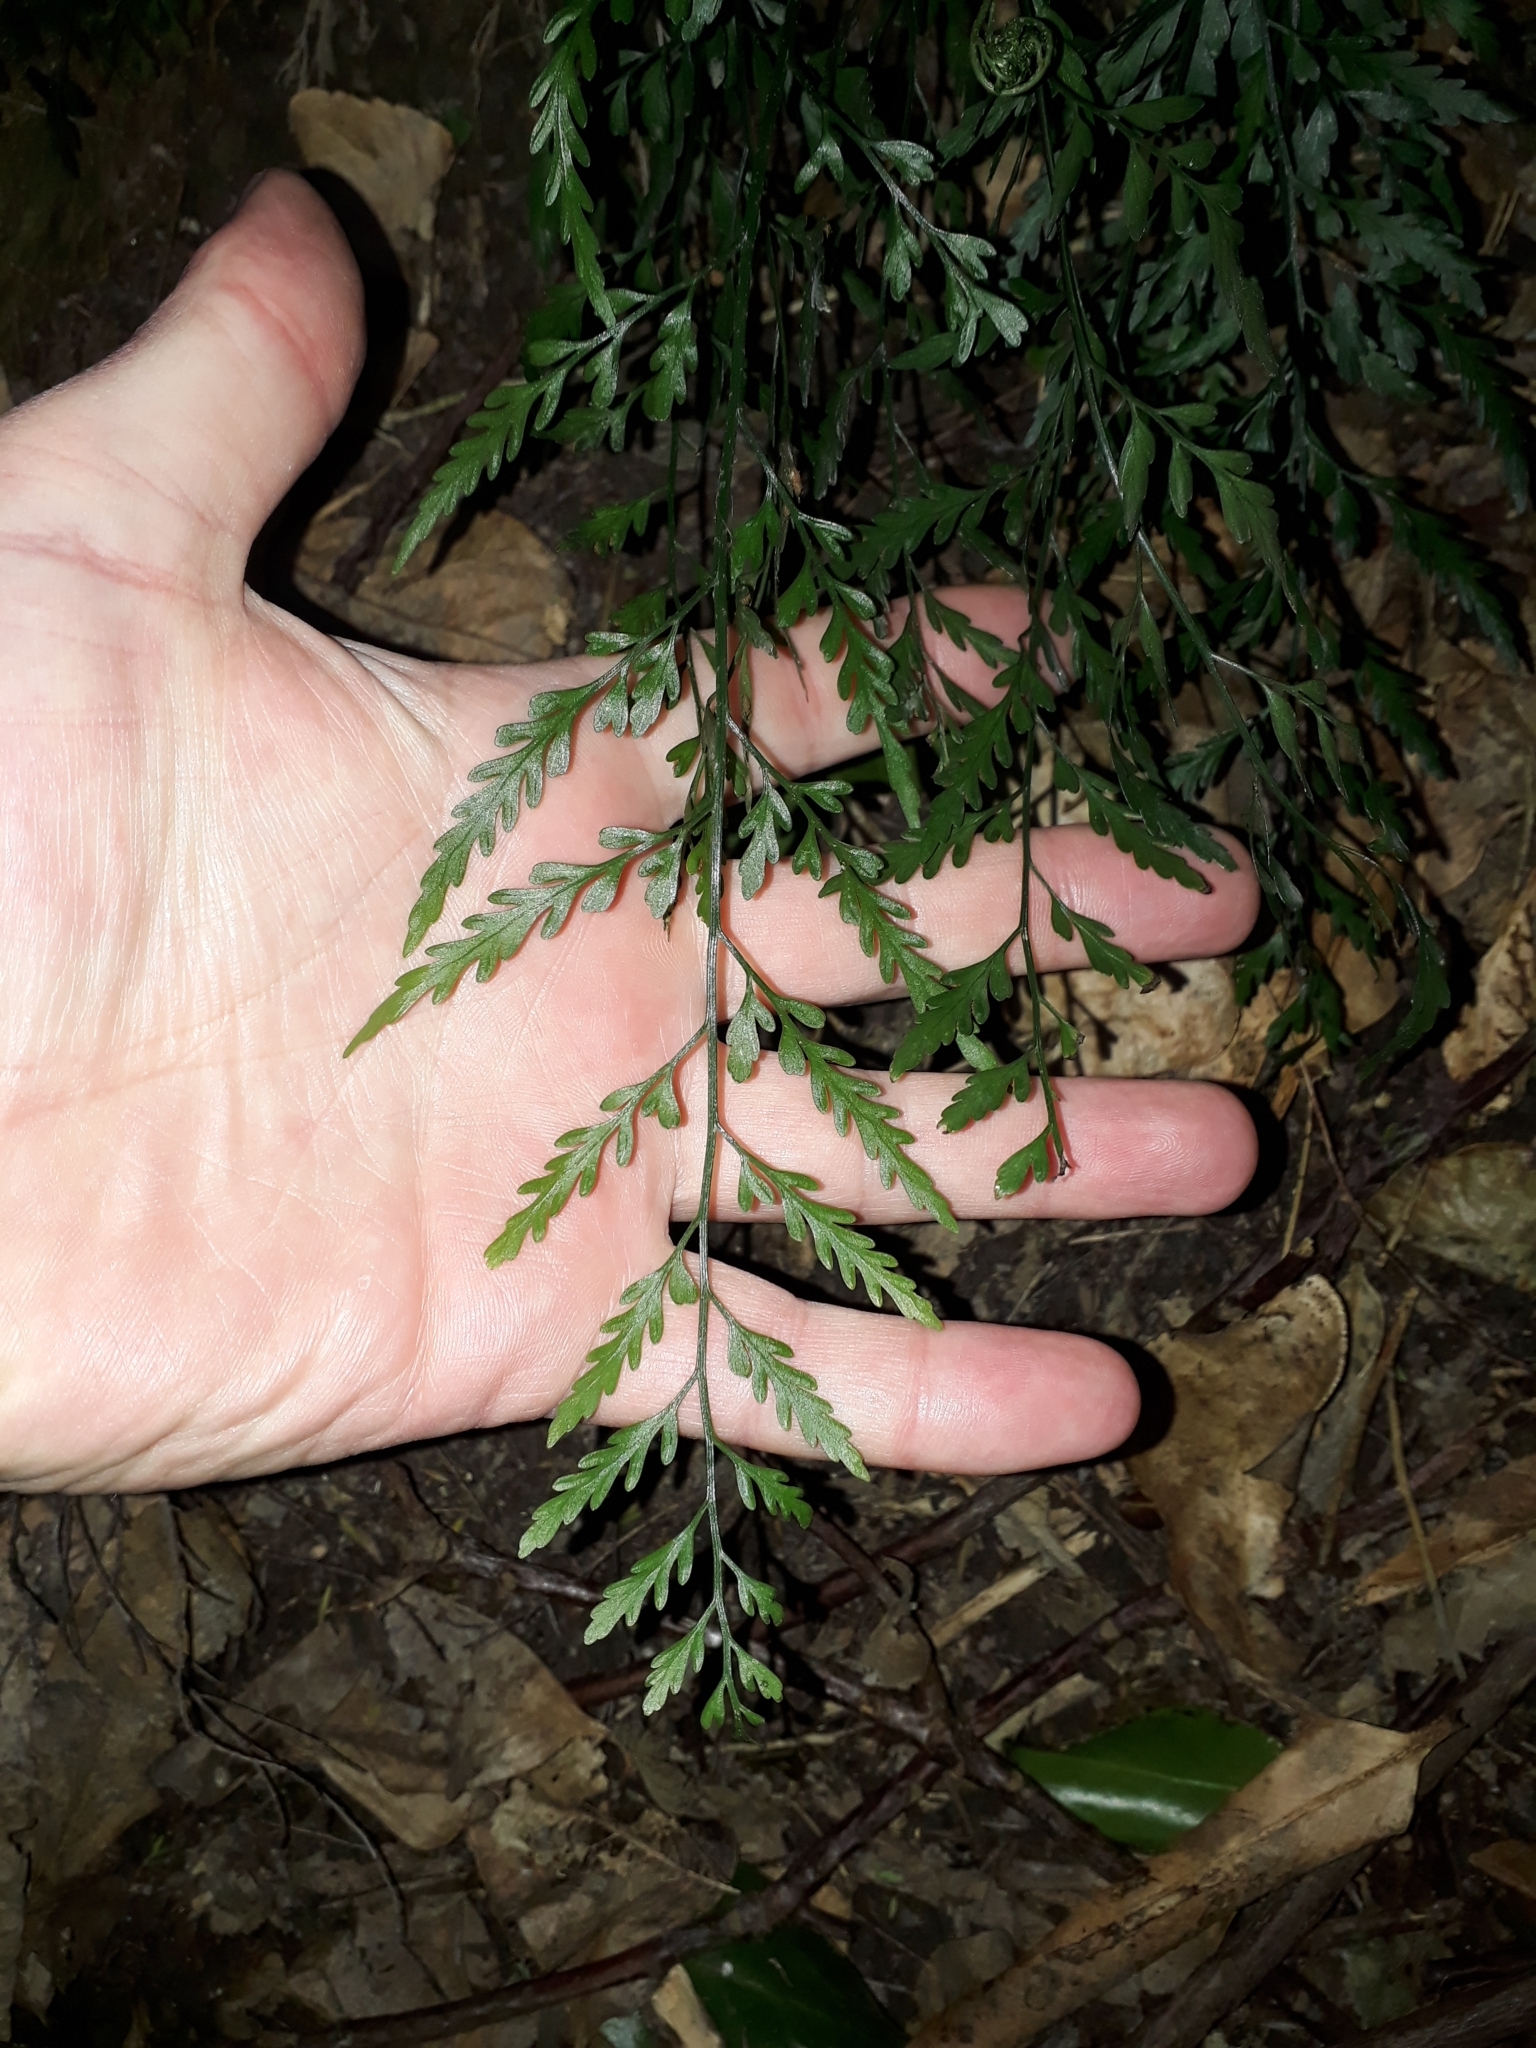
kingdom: Plantae
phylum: Tracheophyta
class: Polypodiopsida
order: Polypodiales
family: Aspleniaceae
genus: Asplenium
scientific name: Asplenium
